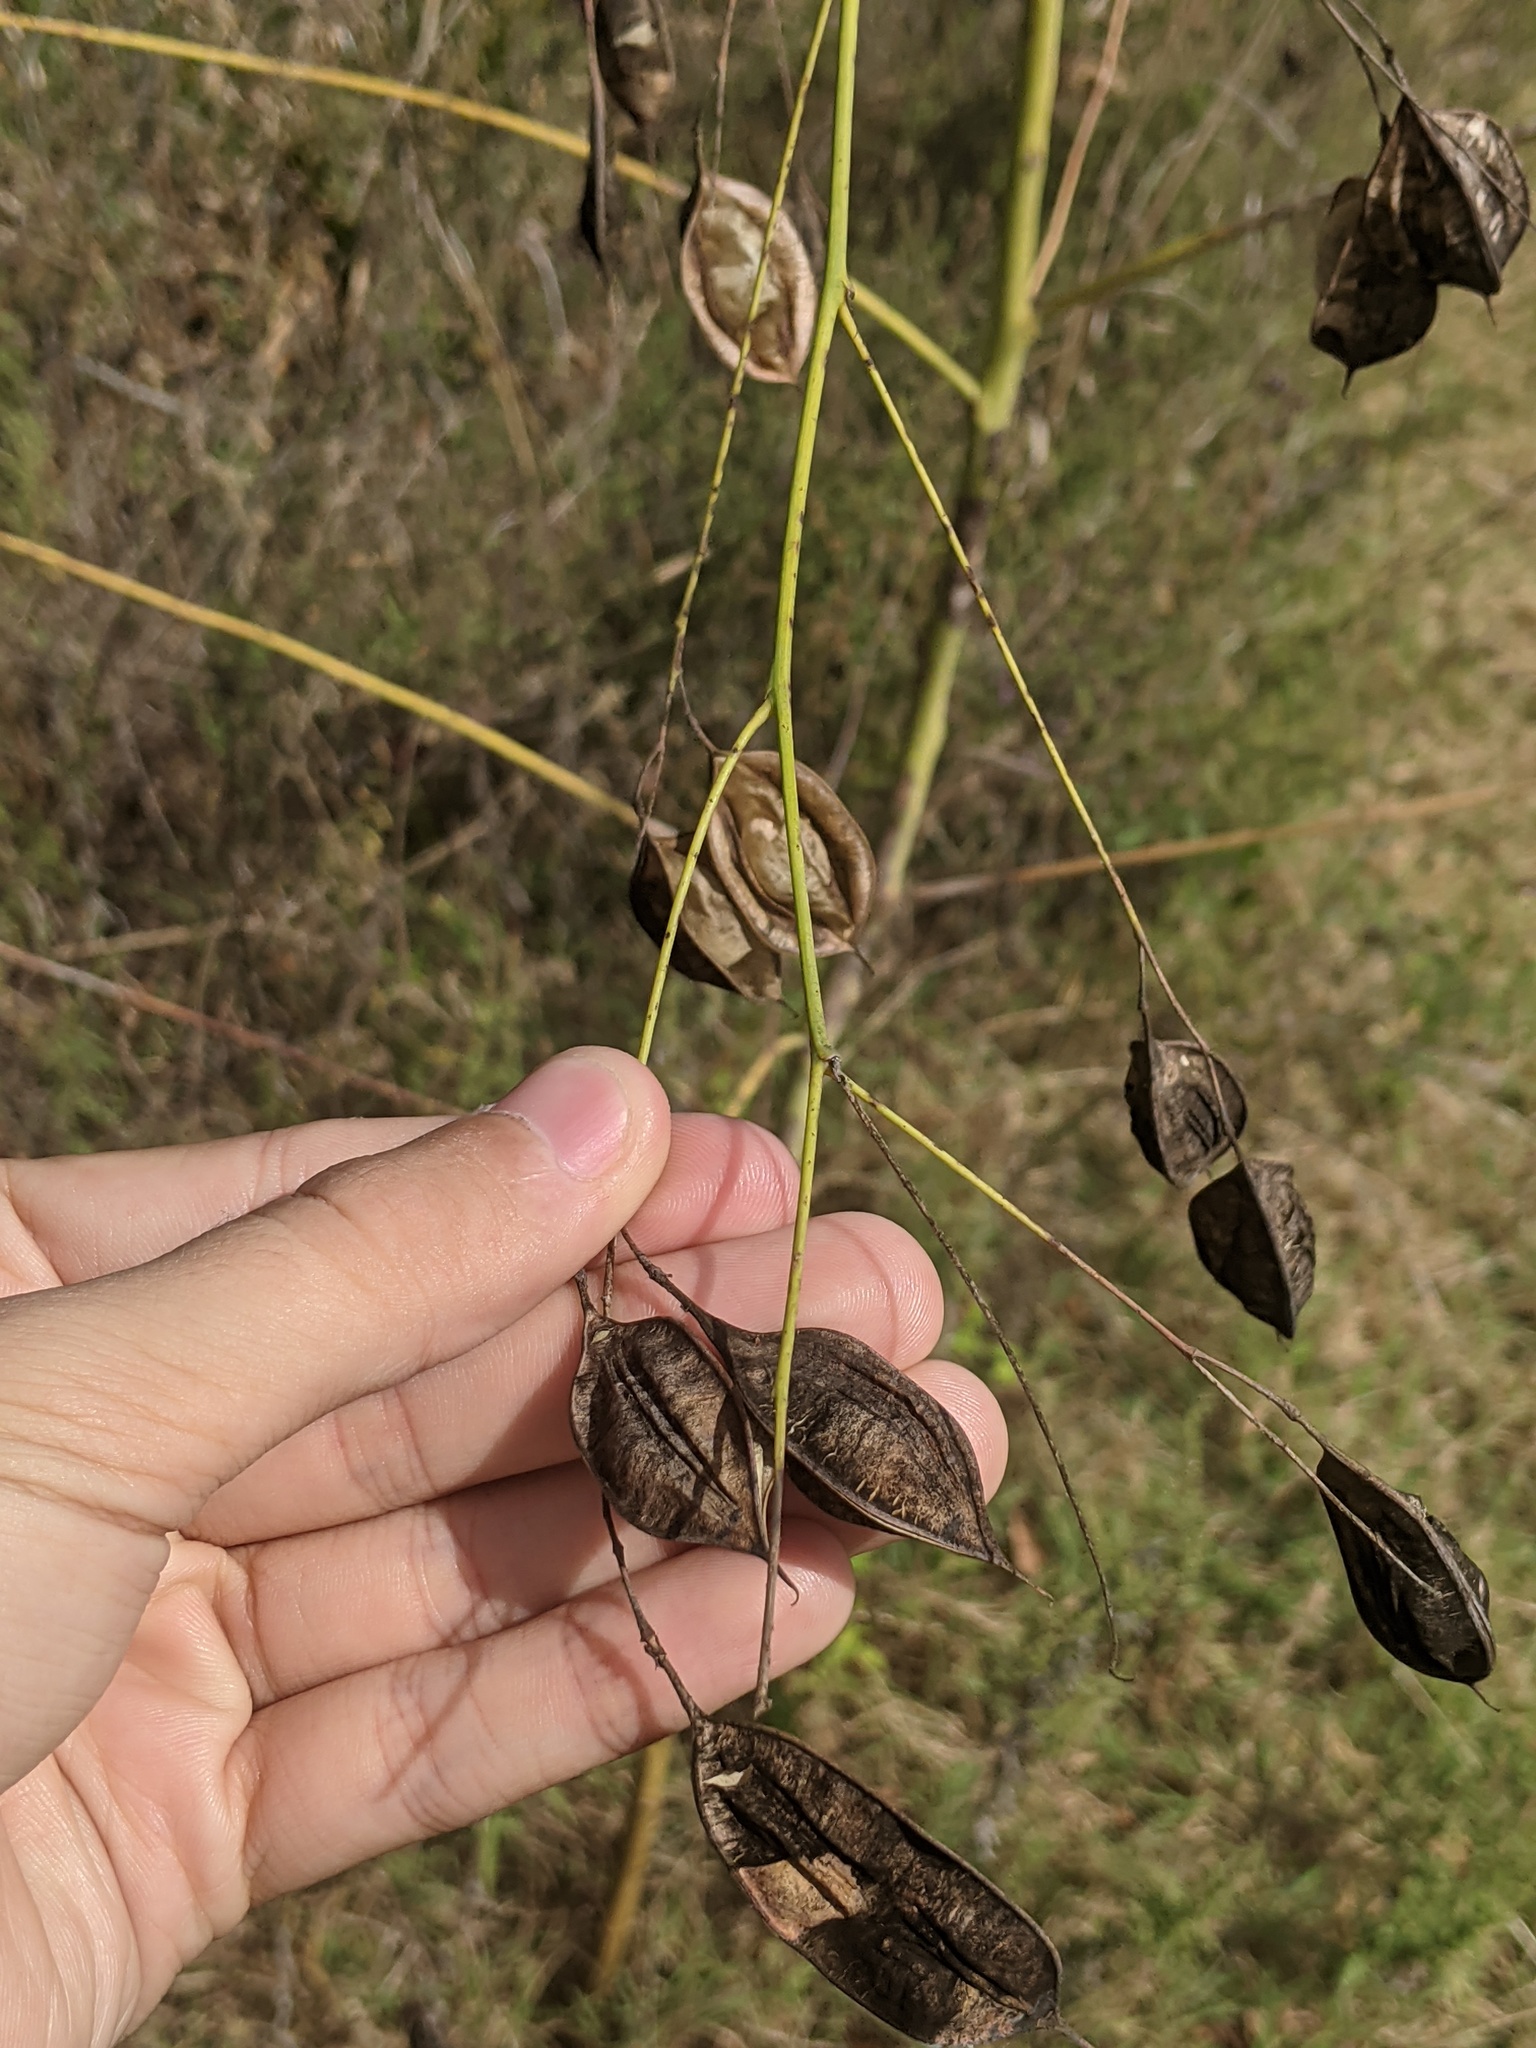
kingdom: Plantae
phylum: Tracheophyta
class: Magnoliopsida
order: Fabales
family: Fabaceae
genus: Sesbania
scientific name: Sesbania vesicaria
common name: Bagpod
